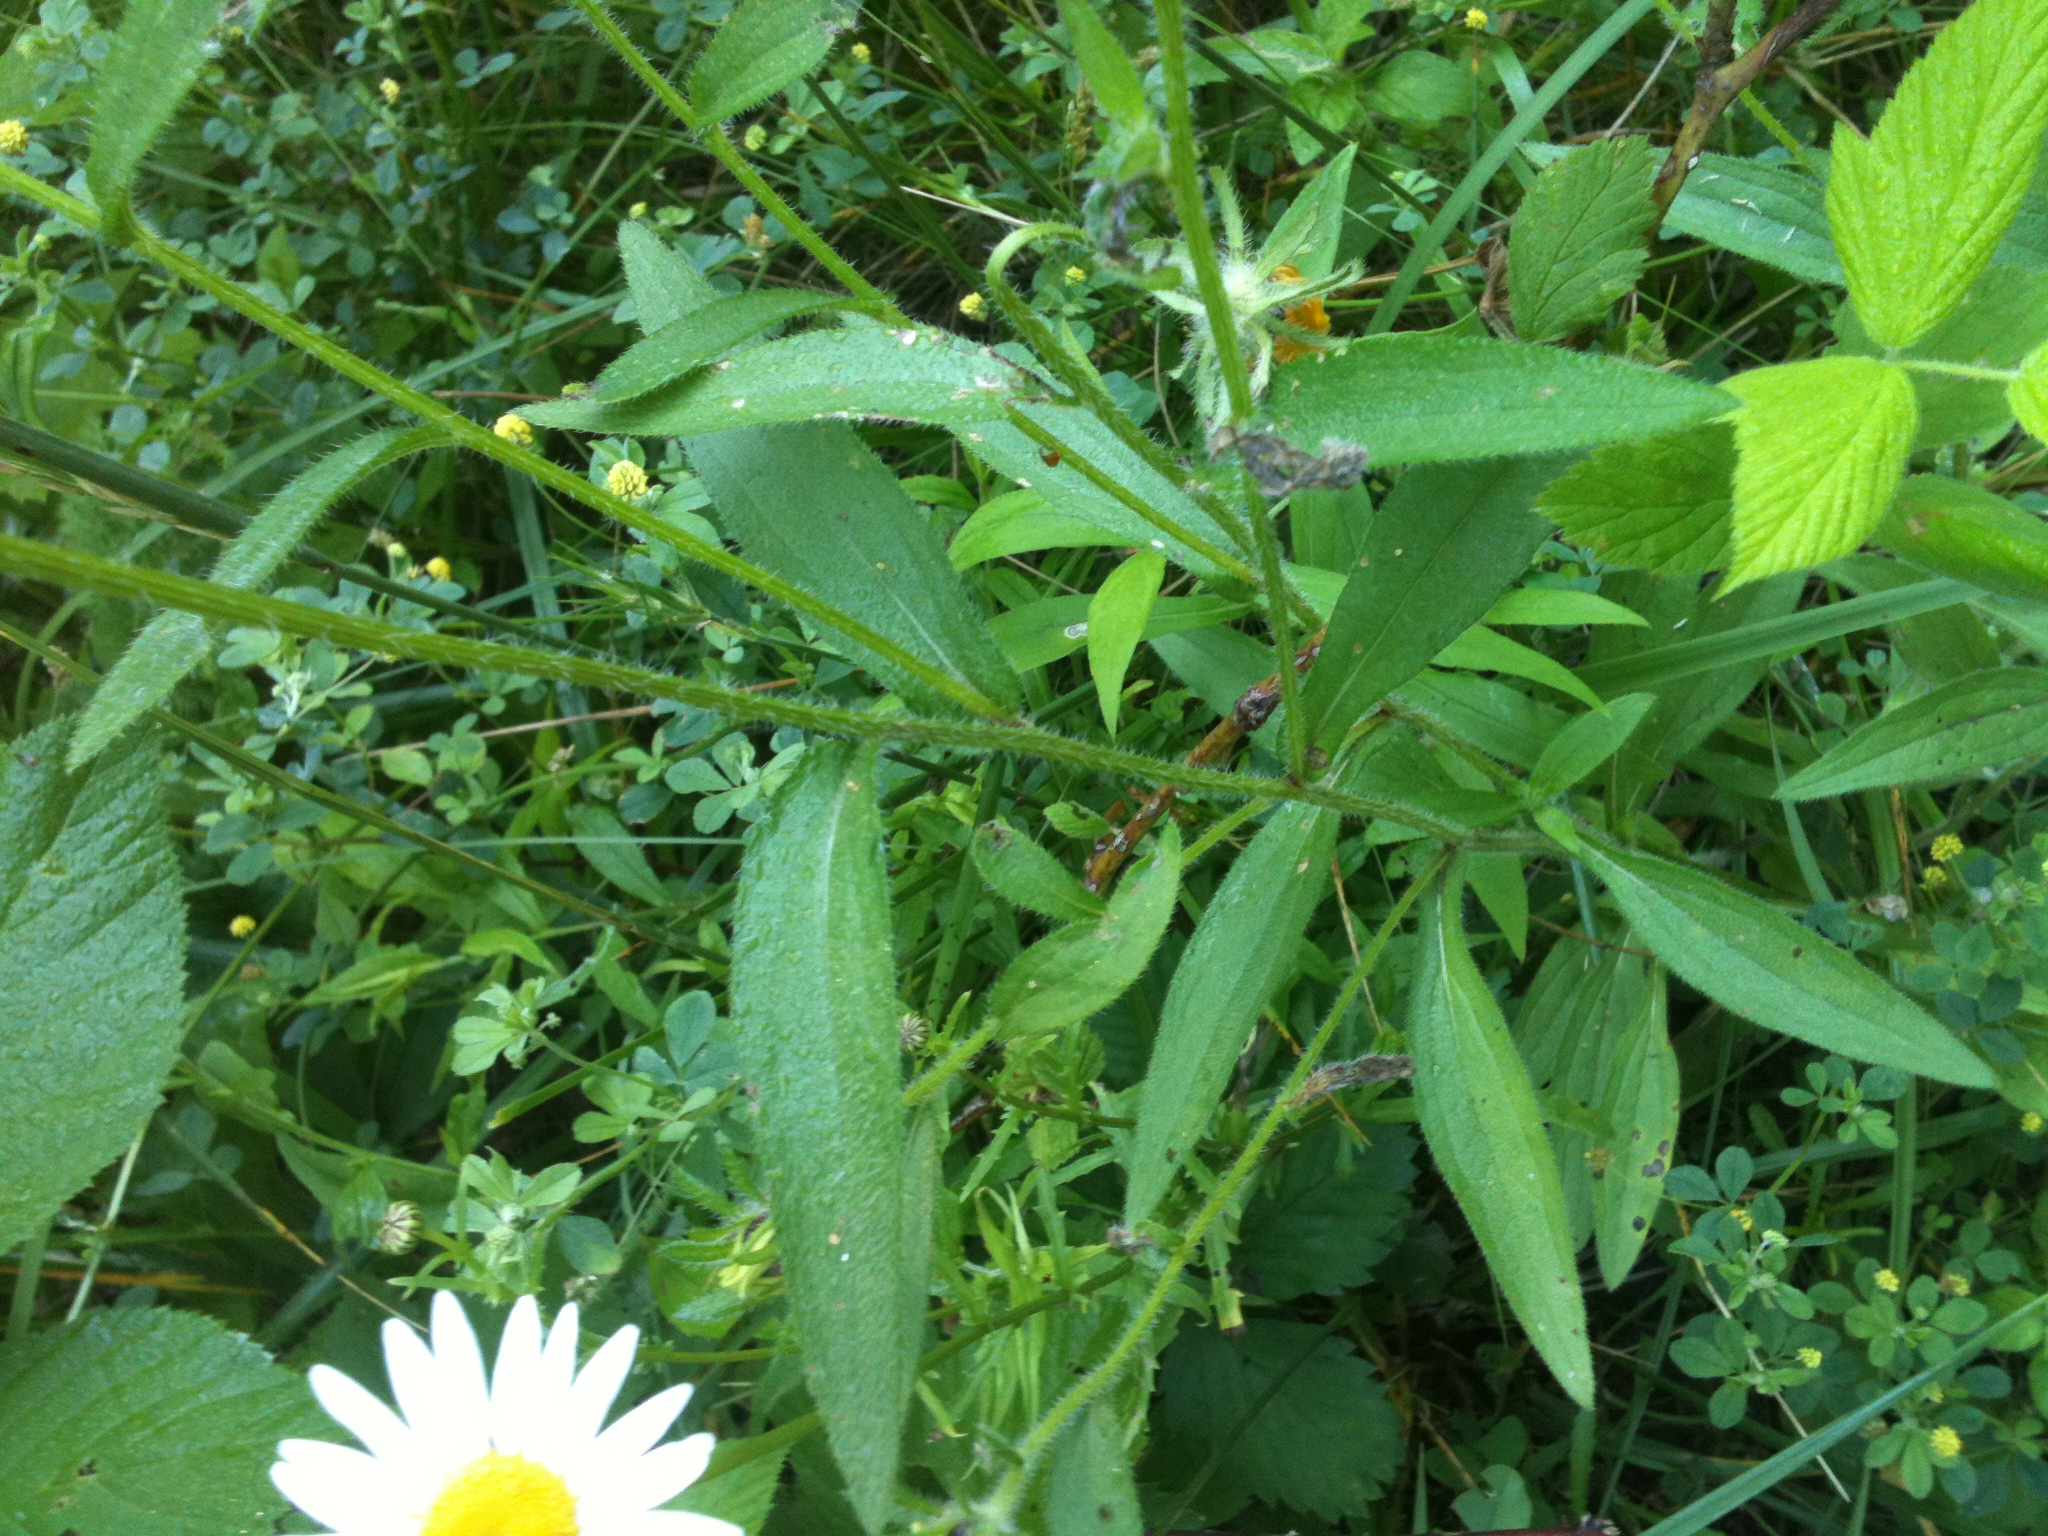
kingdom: Plantae
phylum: Tracheophyta
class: Magnoliopsida
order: Asterales
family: Asteraceae
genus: Rudbeckia
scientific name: Rudbeckia hirta
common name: Black-eyed-susan
